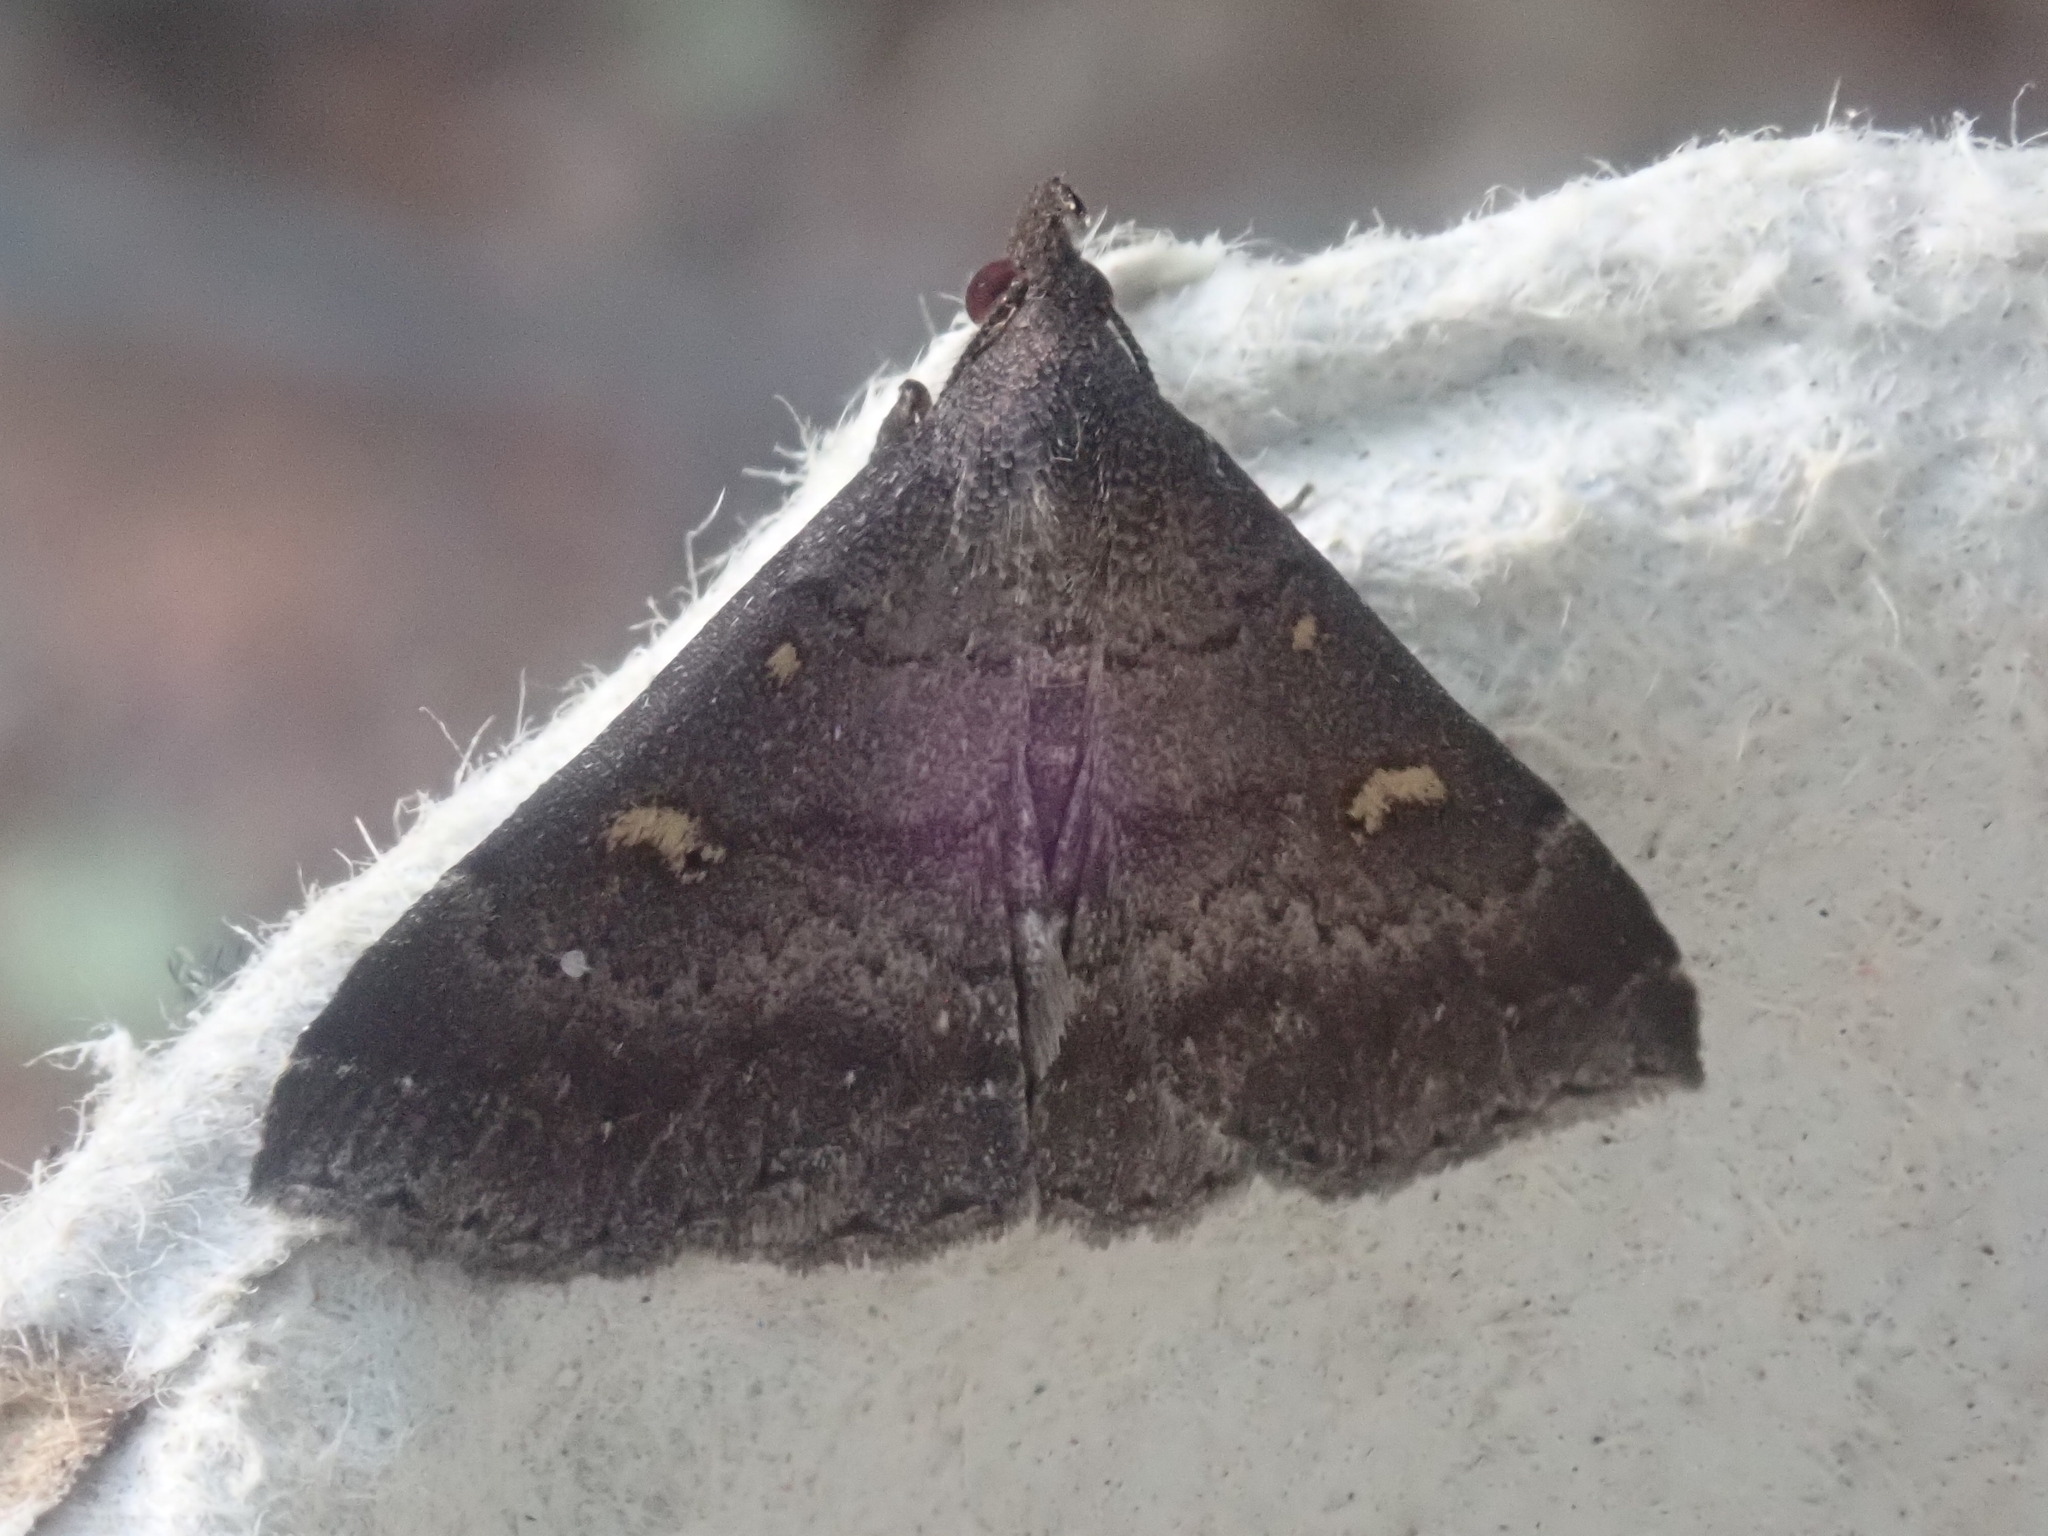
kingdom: Animalia
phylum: Arthropoda
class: Insecta
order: Lepidoptera
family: Erebidae
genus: Renia
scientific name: Renia sobrialis
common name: Sober renia moth
